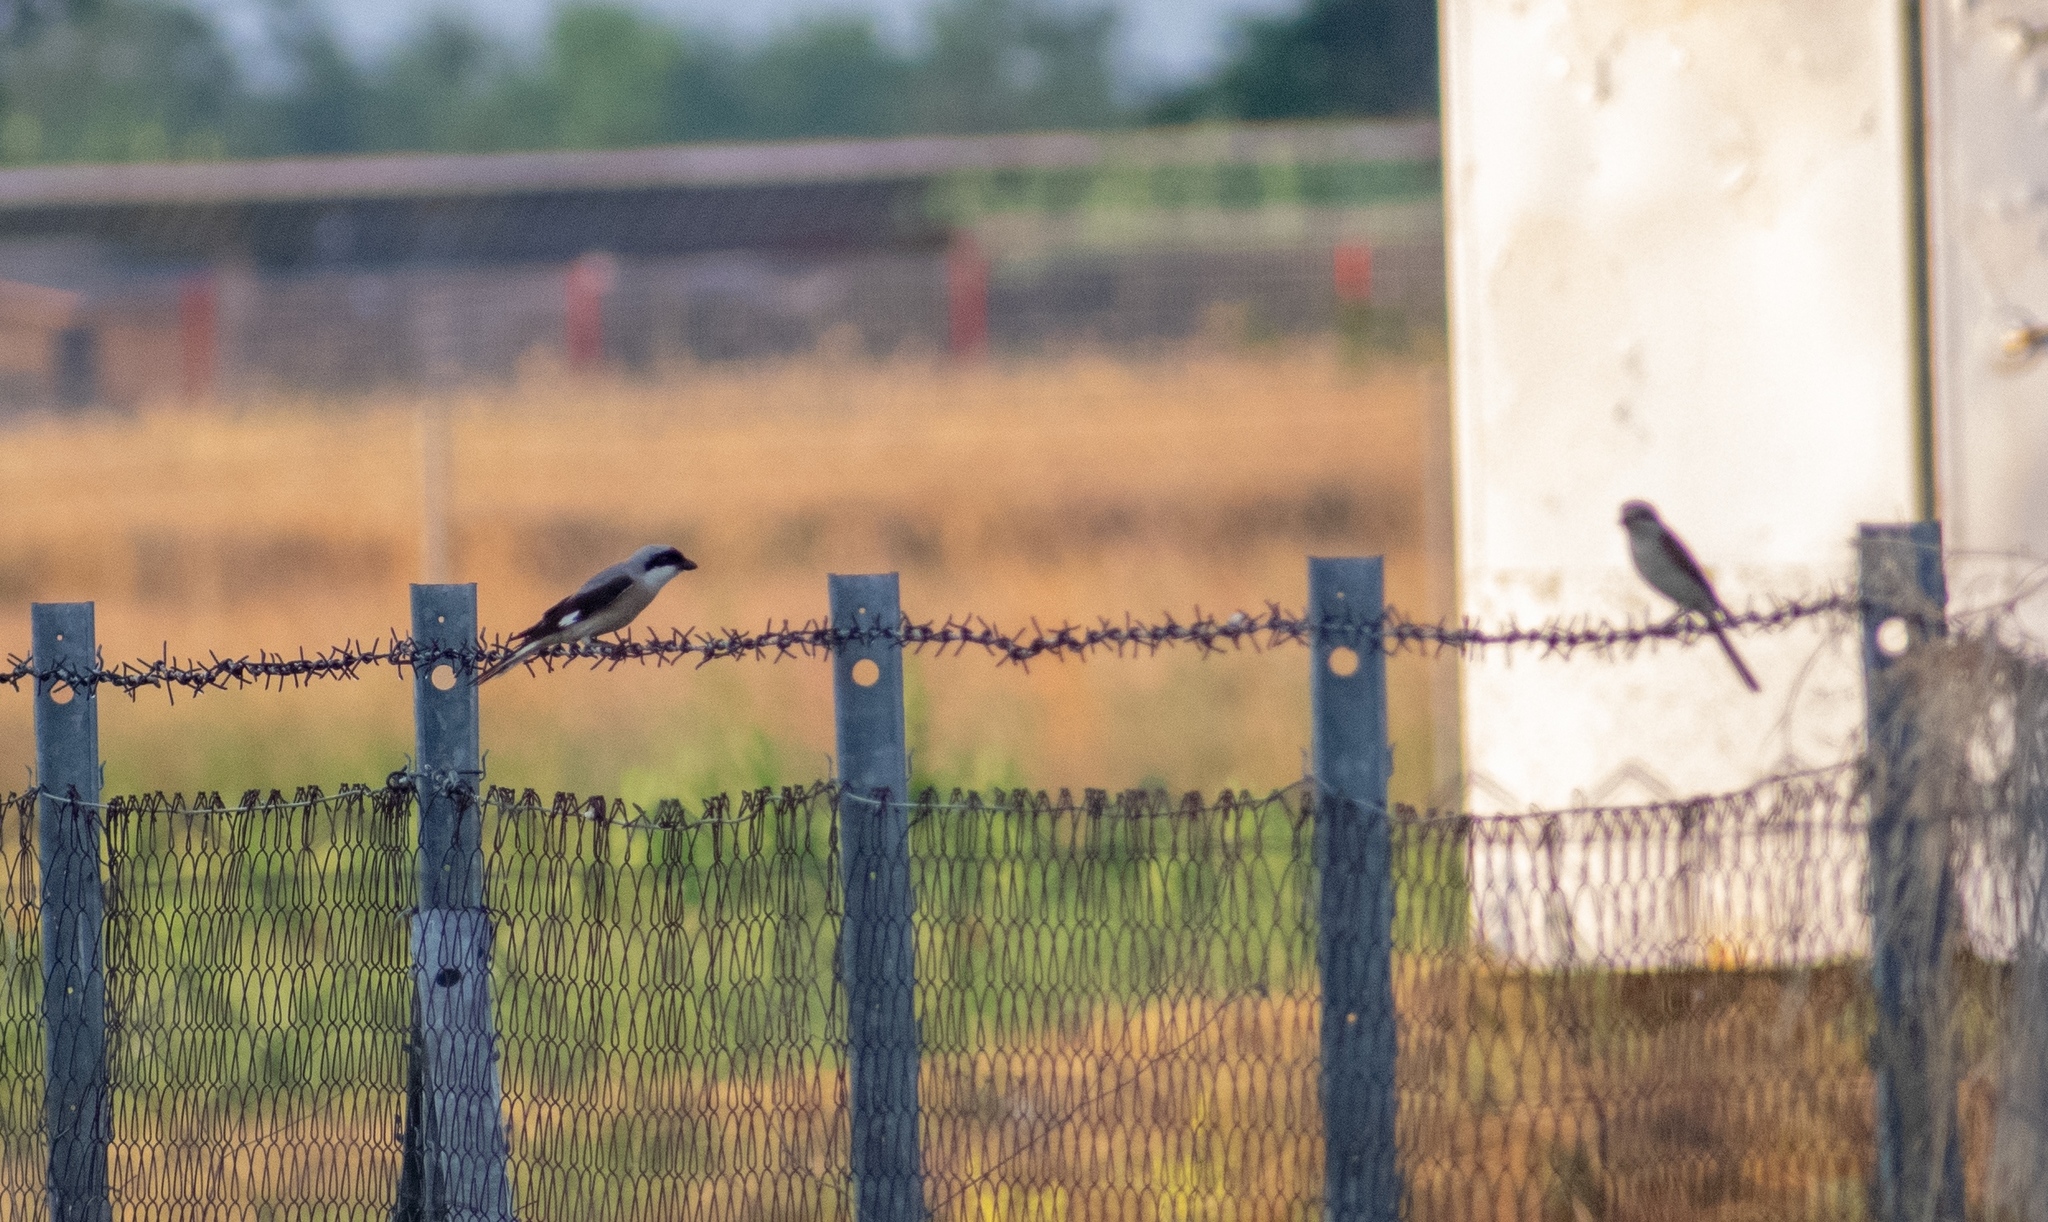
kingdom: Animalia
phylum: Chordata
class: Aves
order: Passeriformes
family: Laniidae
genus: Lanius
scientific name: Lanius minor
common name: Lesser grey shrike
